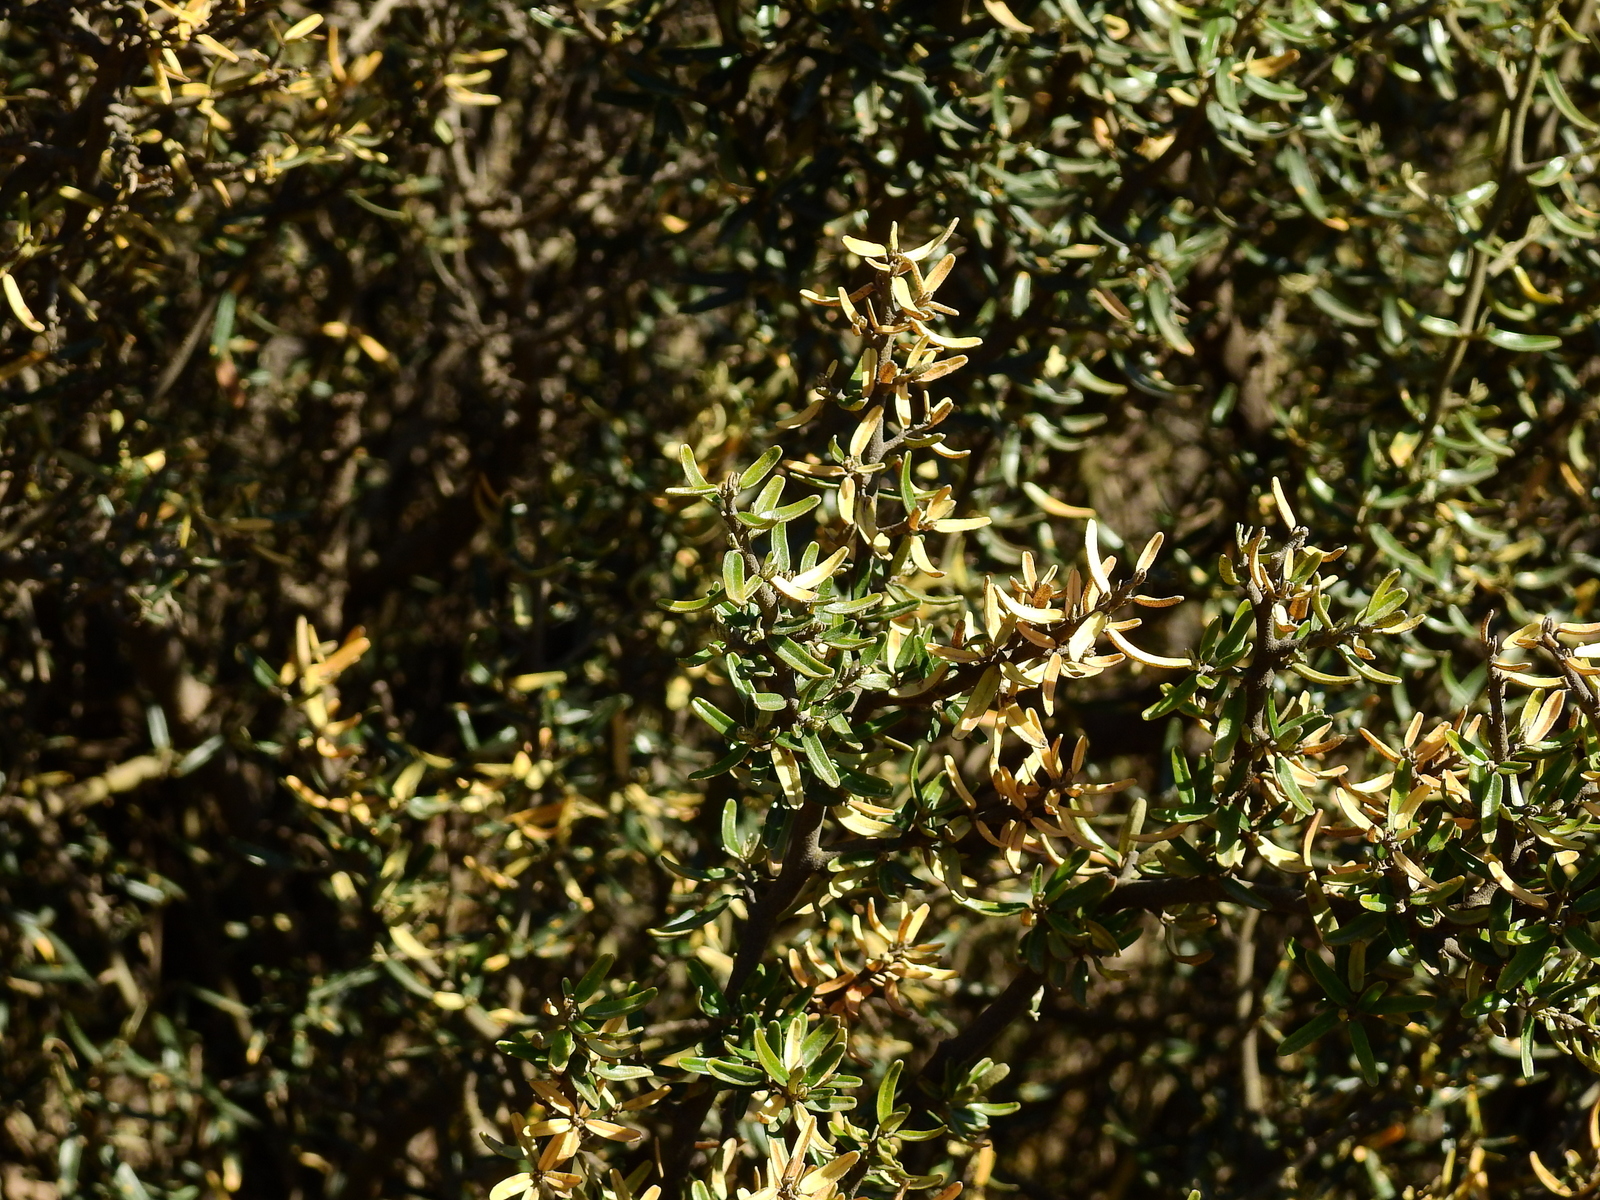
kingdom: Plantae
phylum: Tracheophyta
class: Magnoliopsida
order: Brassicales
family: Capparaceae
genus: Atamisquea
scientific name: Atamisquea emarginata
